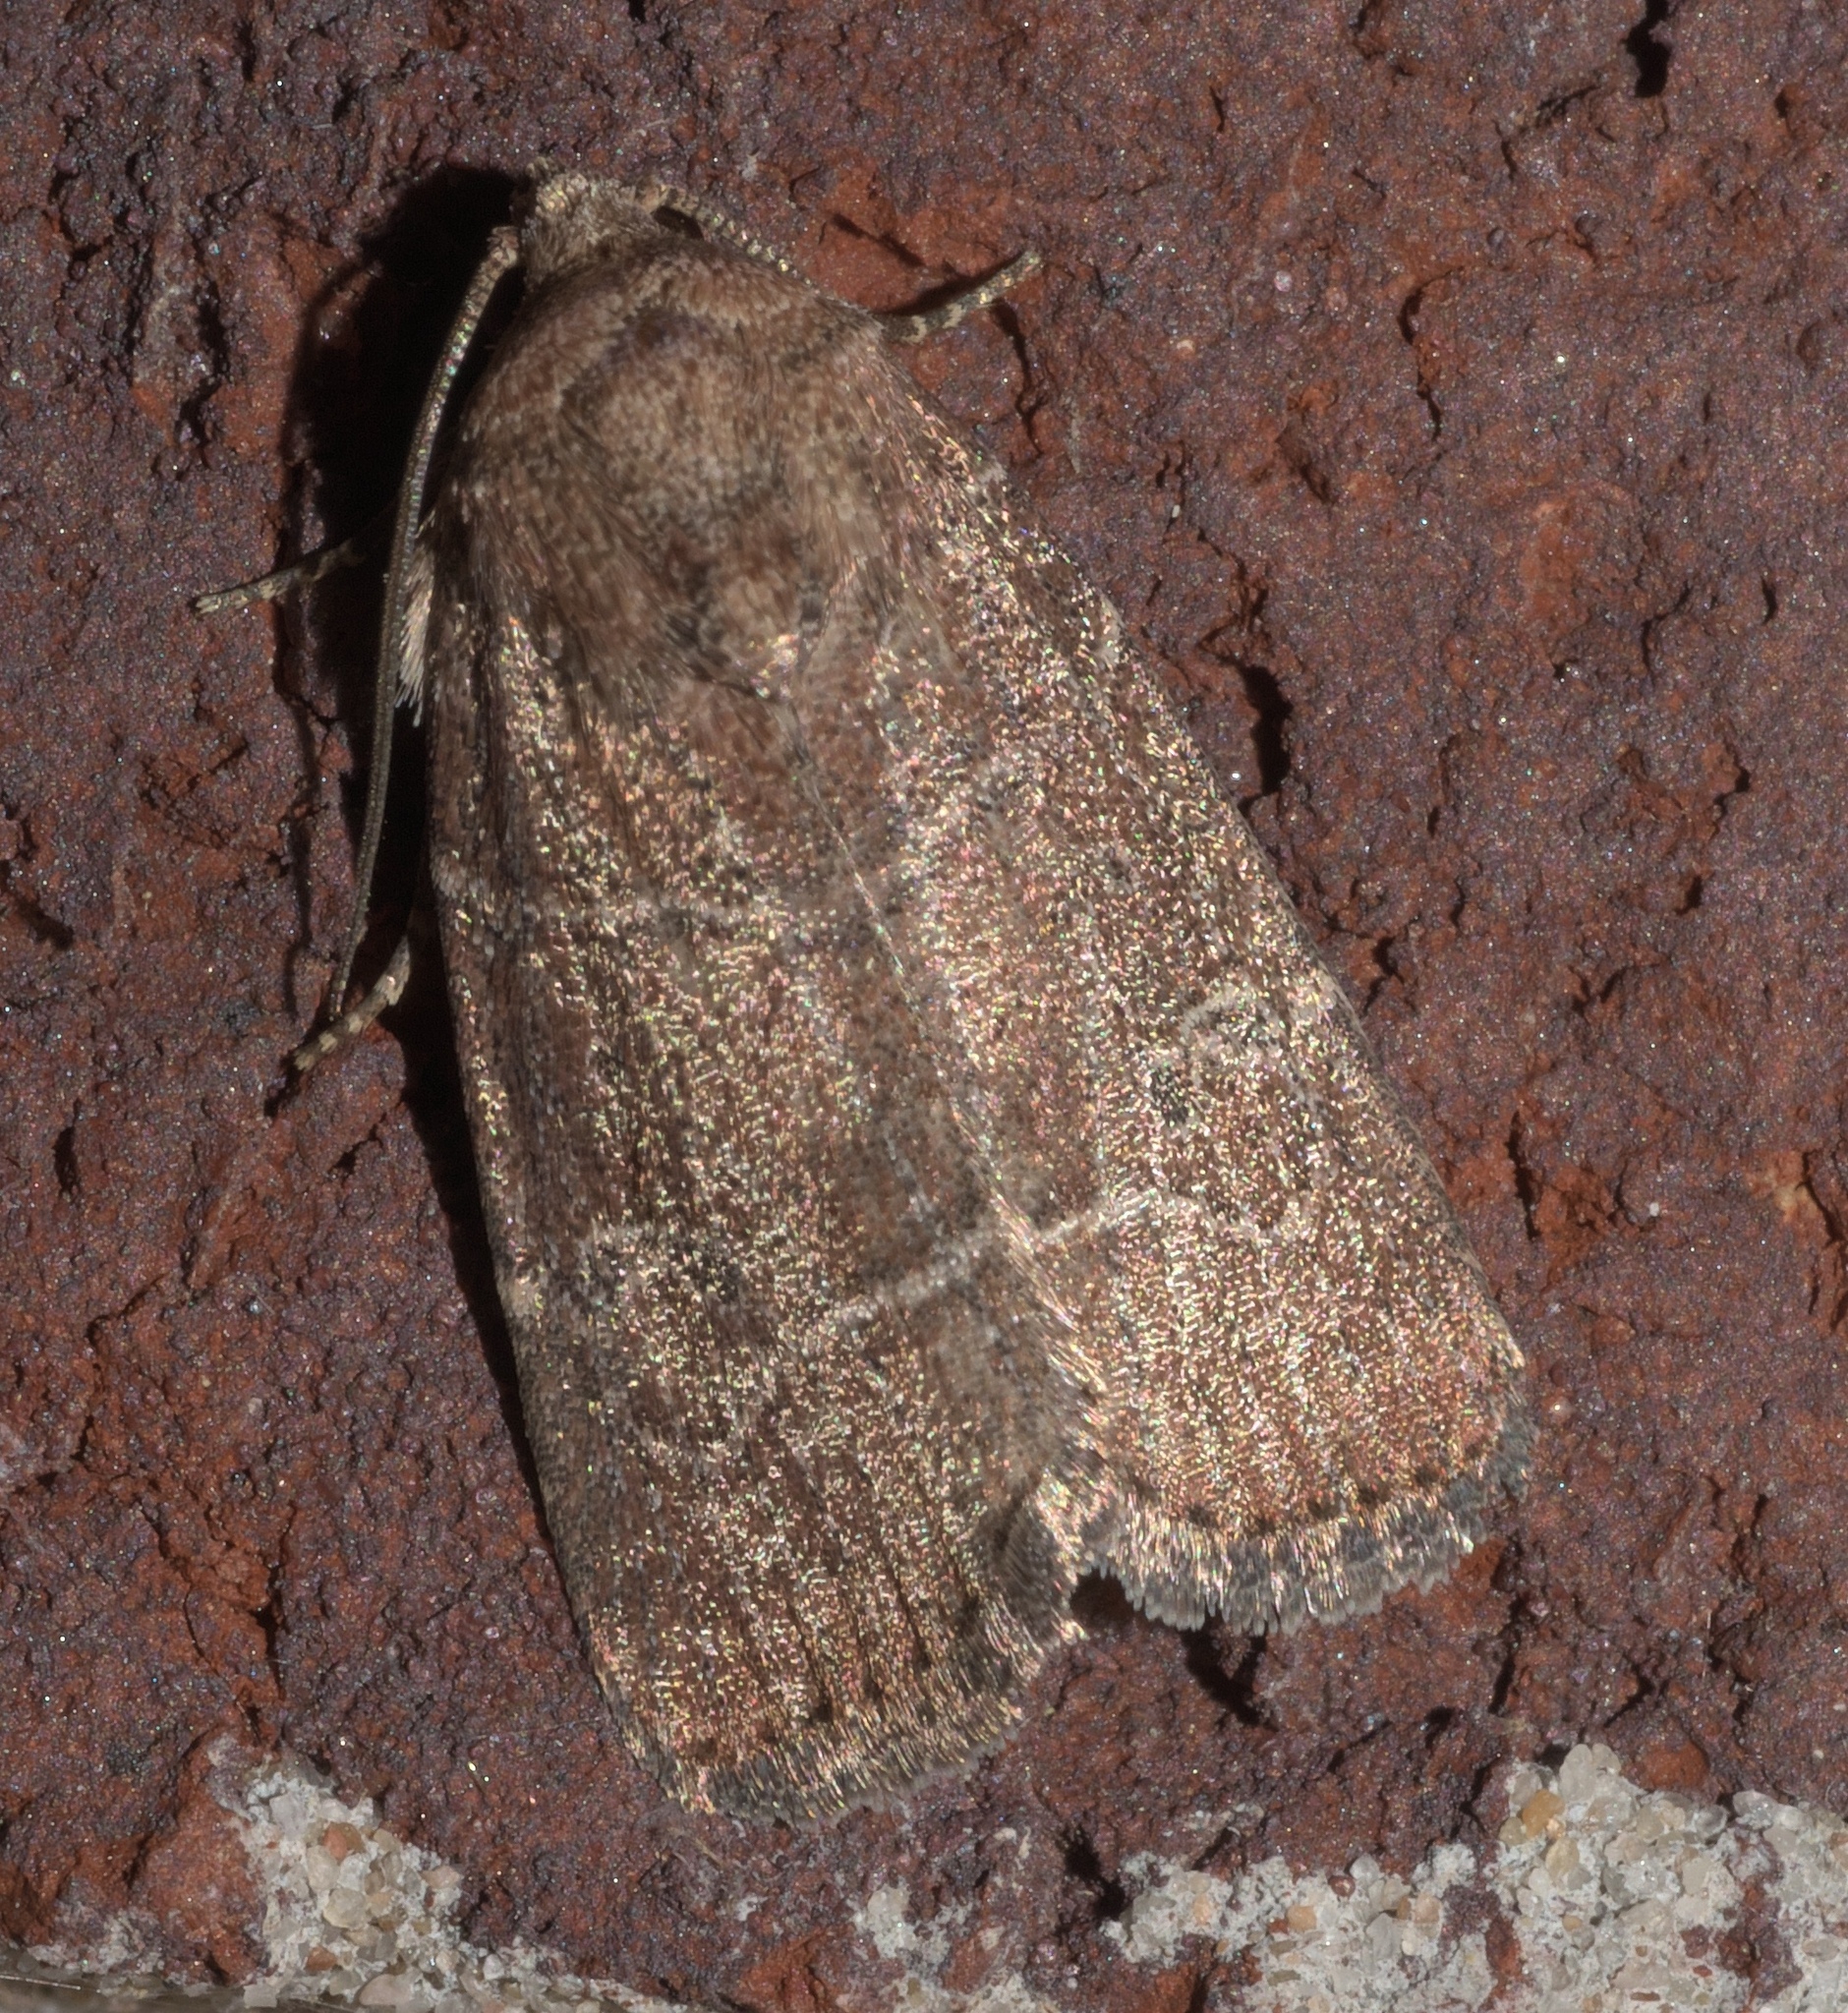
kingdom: Animalia
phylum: Arthropoda
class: Insecta
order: Lepidoptera
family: Noctuidae
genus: Elaphria
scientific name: Elaphria grata
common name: Grateful midget moth
